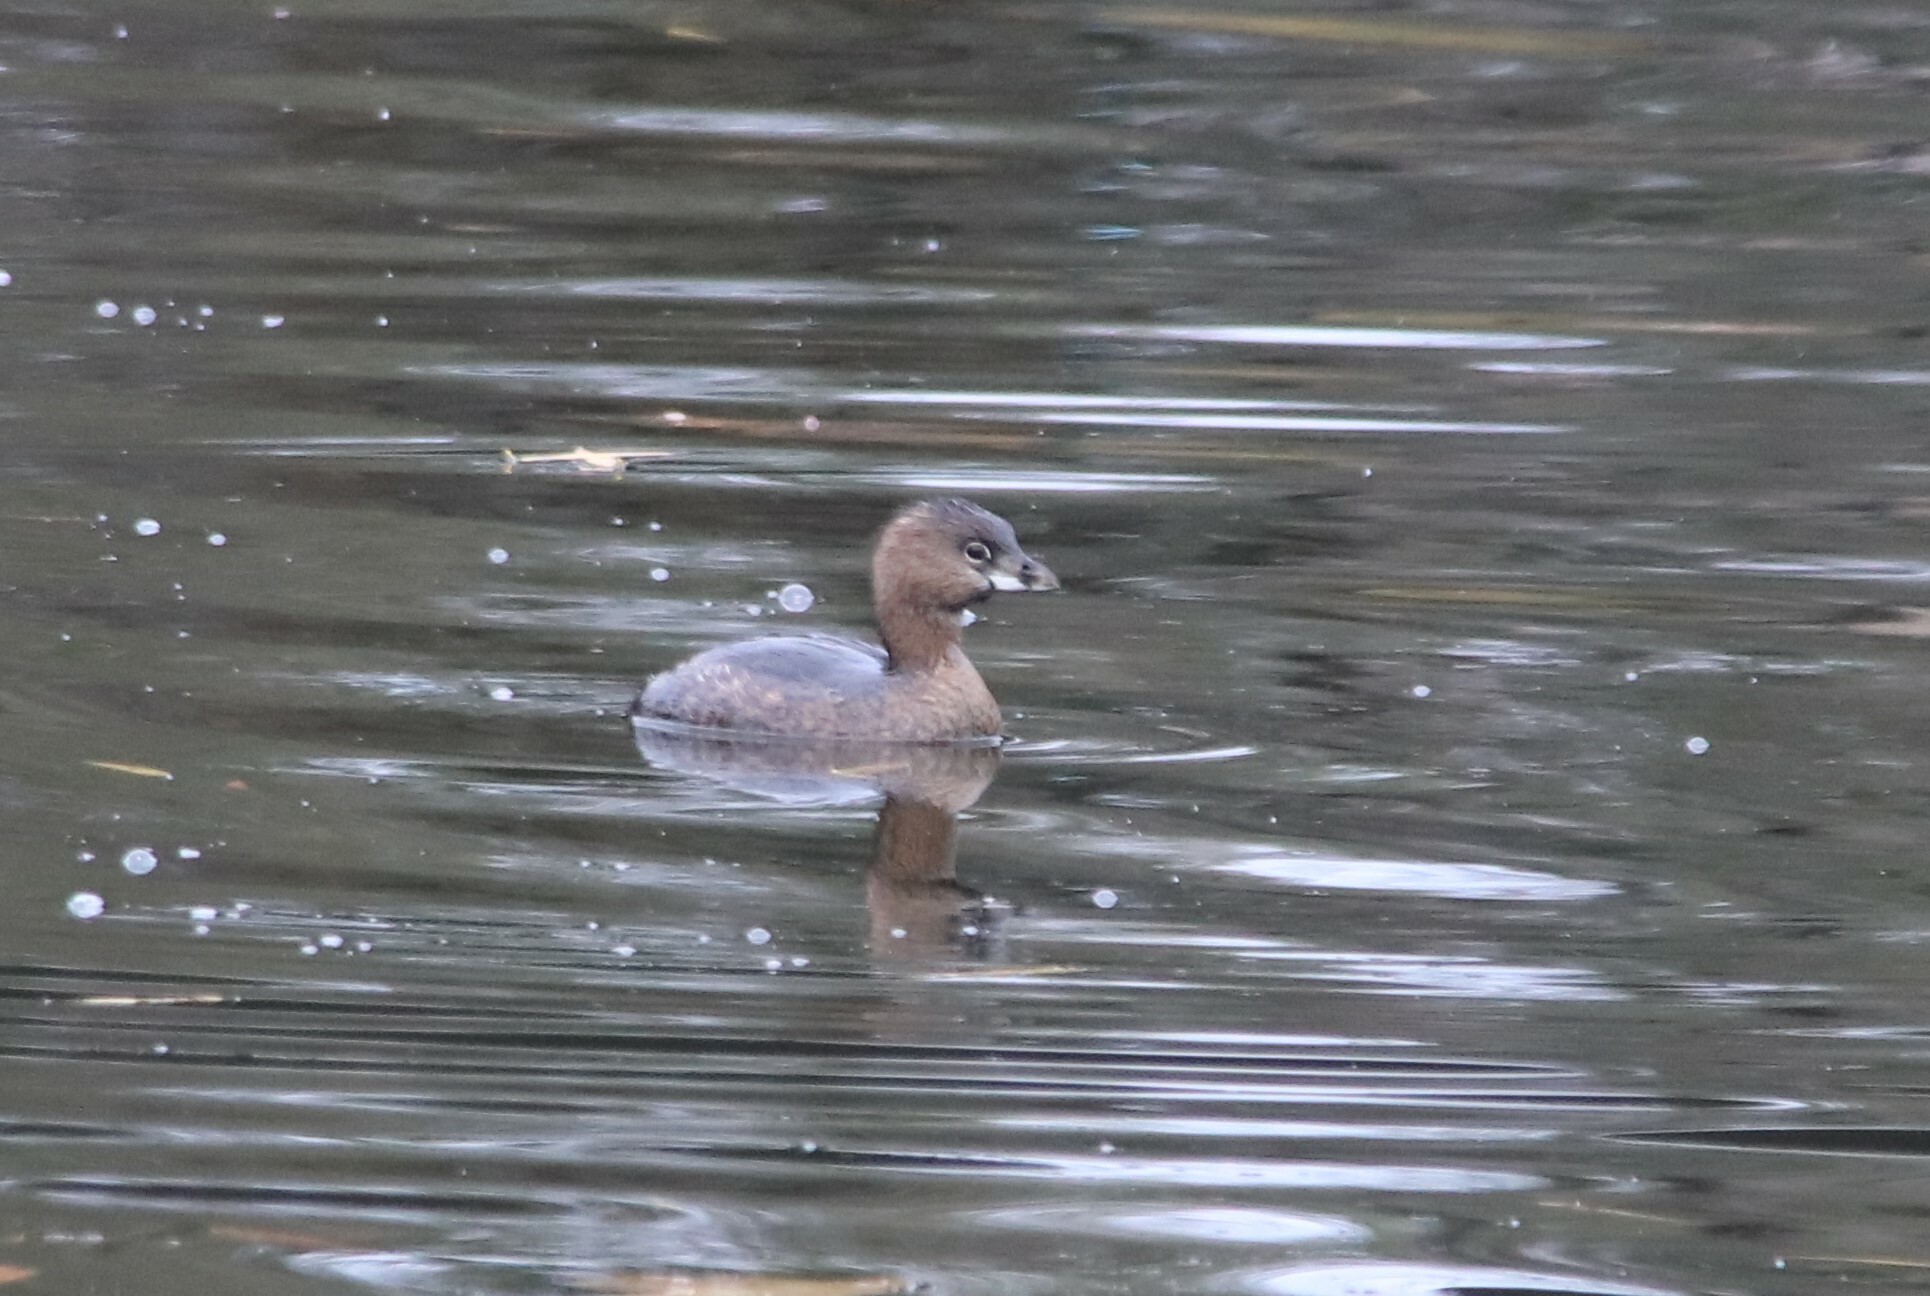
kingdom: Animalia
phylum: Chordata
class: Aves
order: Podicipediformes
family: Podicipedidae
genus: Podilymbus
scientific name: Podilymbus podiceps
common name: Pied-billed grebe
